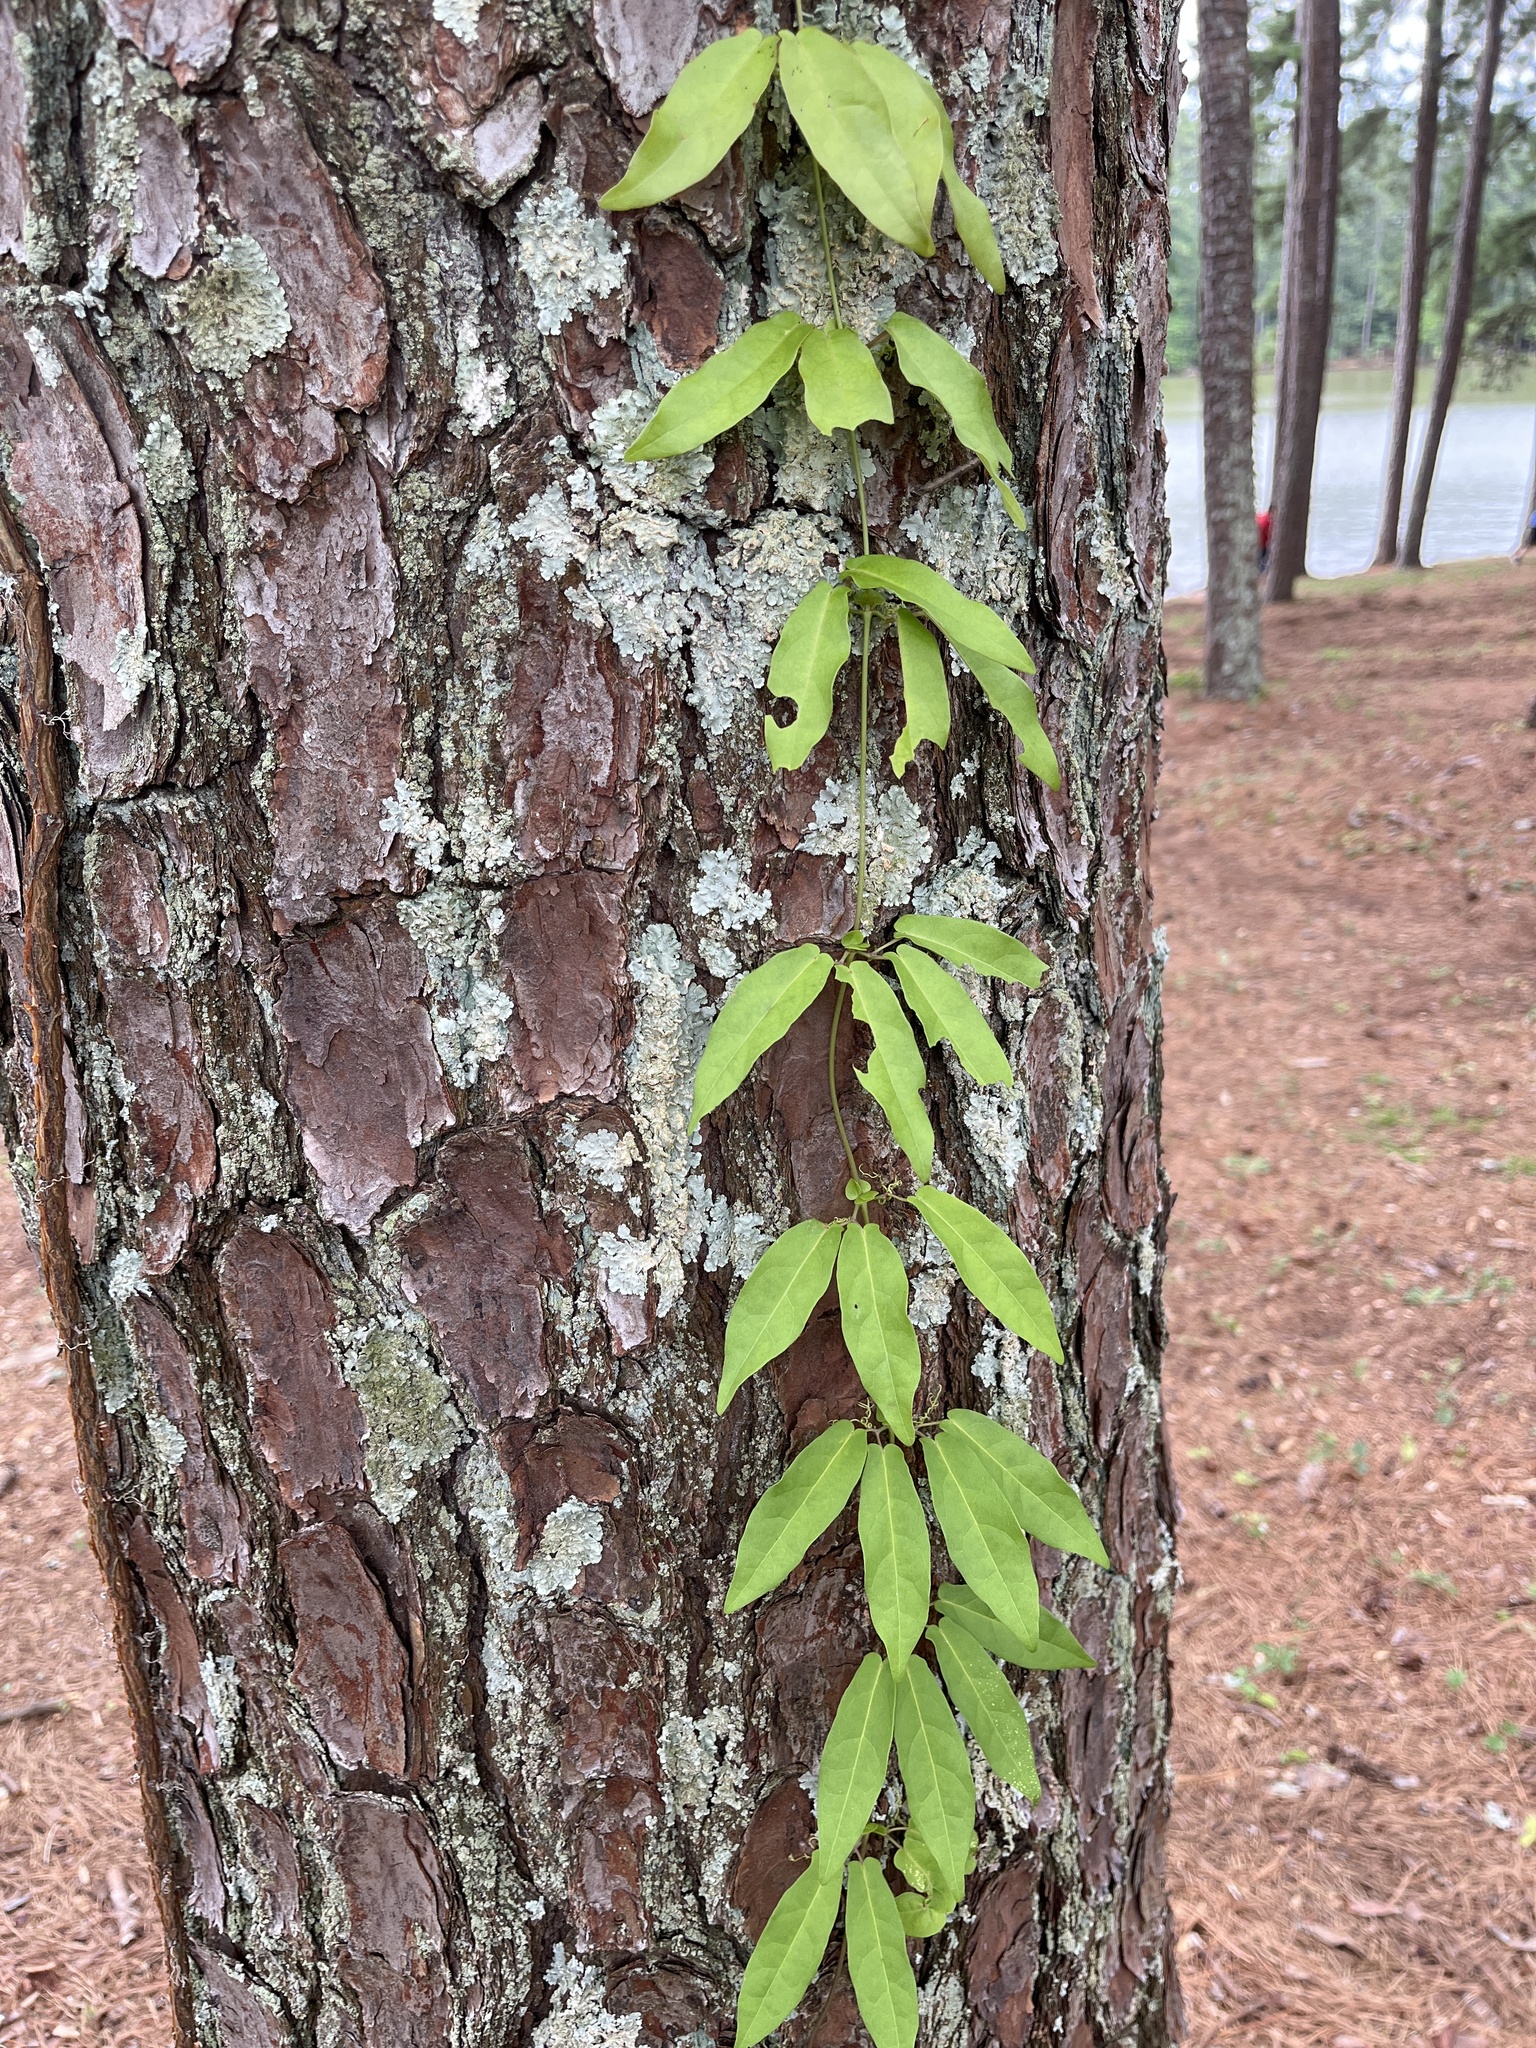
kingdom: Plantae
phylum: Tracheophyta
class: Magnoliopsida
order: Lamiales
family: Bignoniaceae
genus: Bignonia
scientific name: Bignonia capreolata
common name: Crossvine
